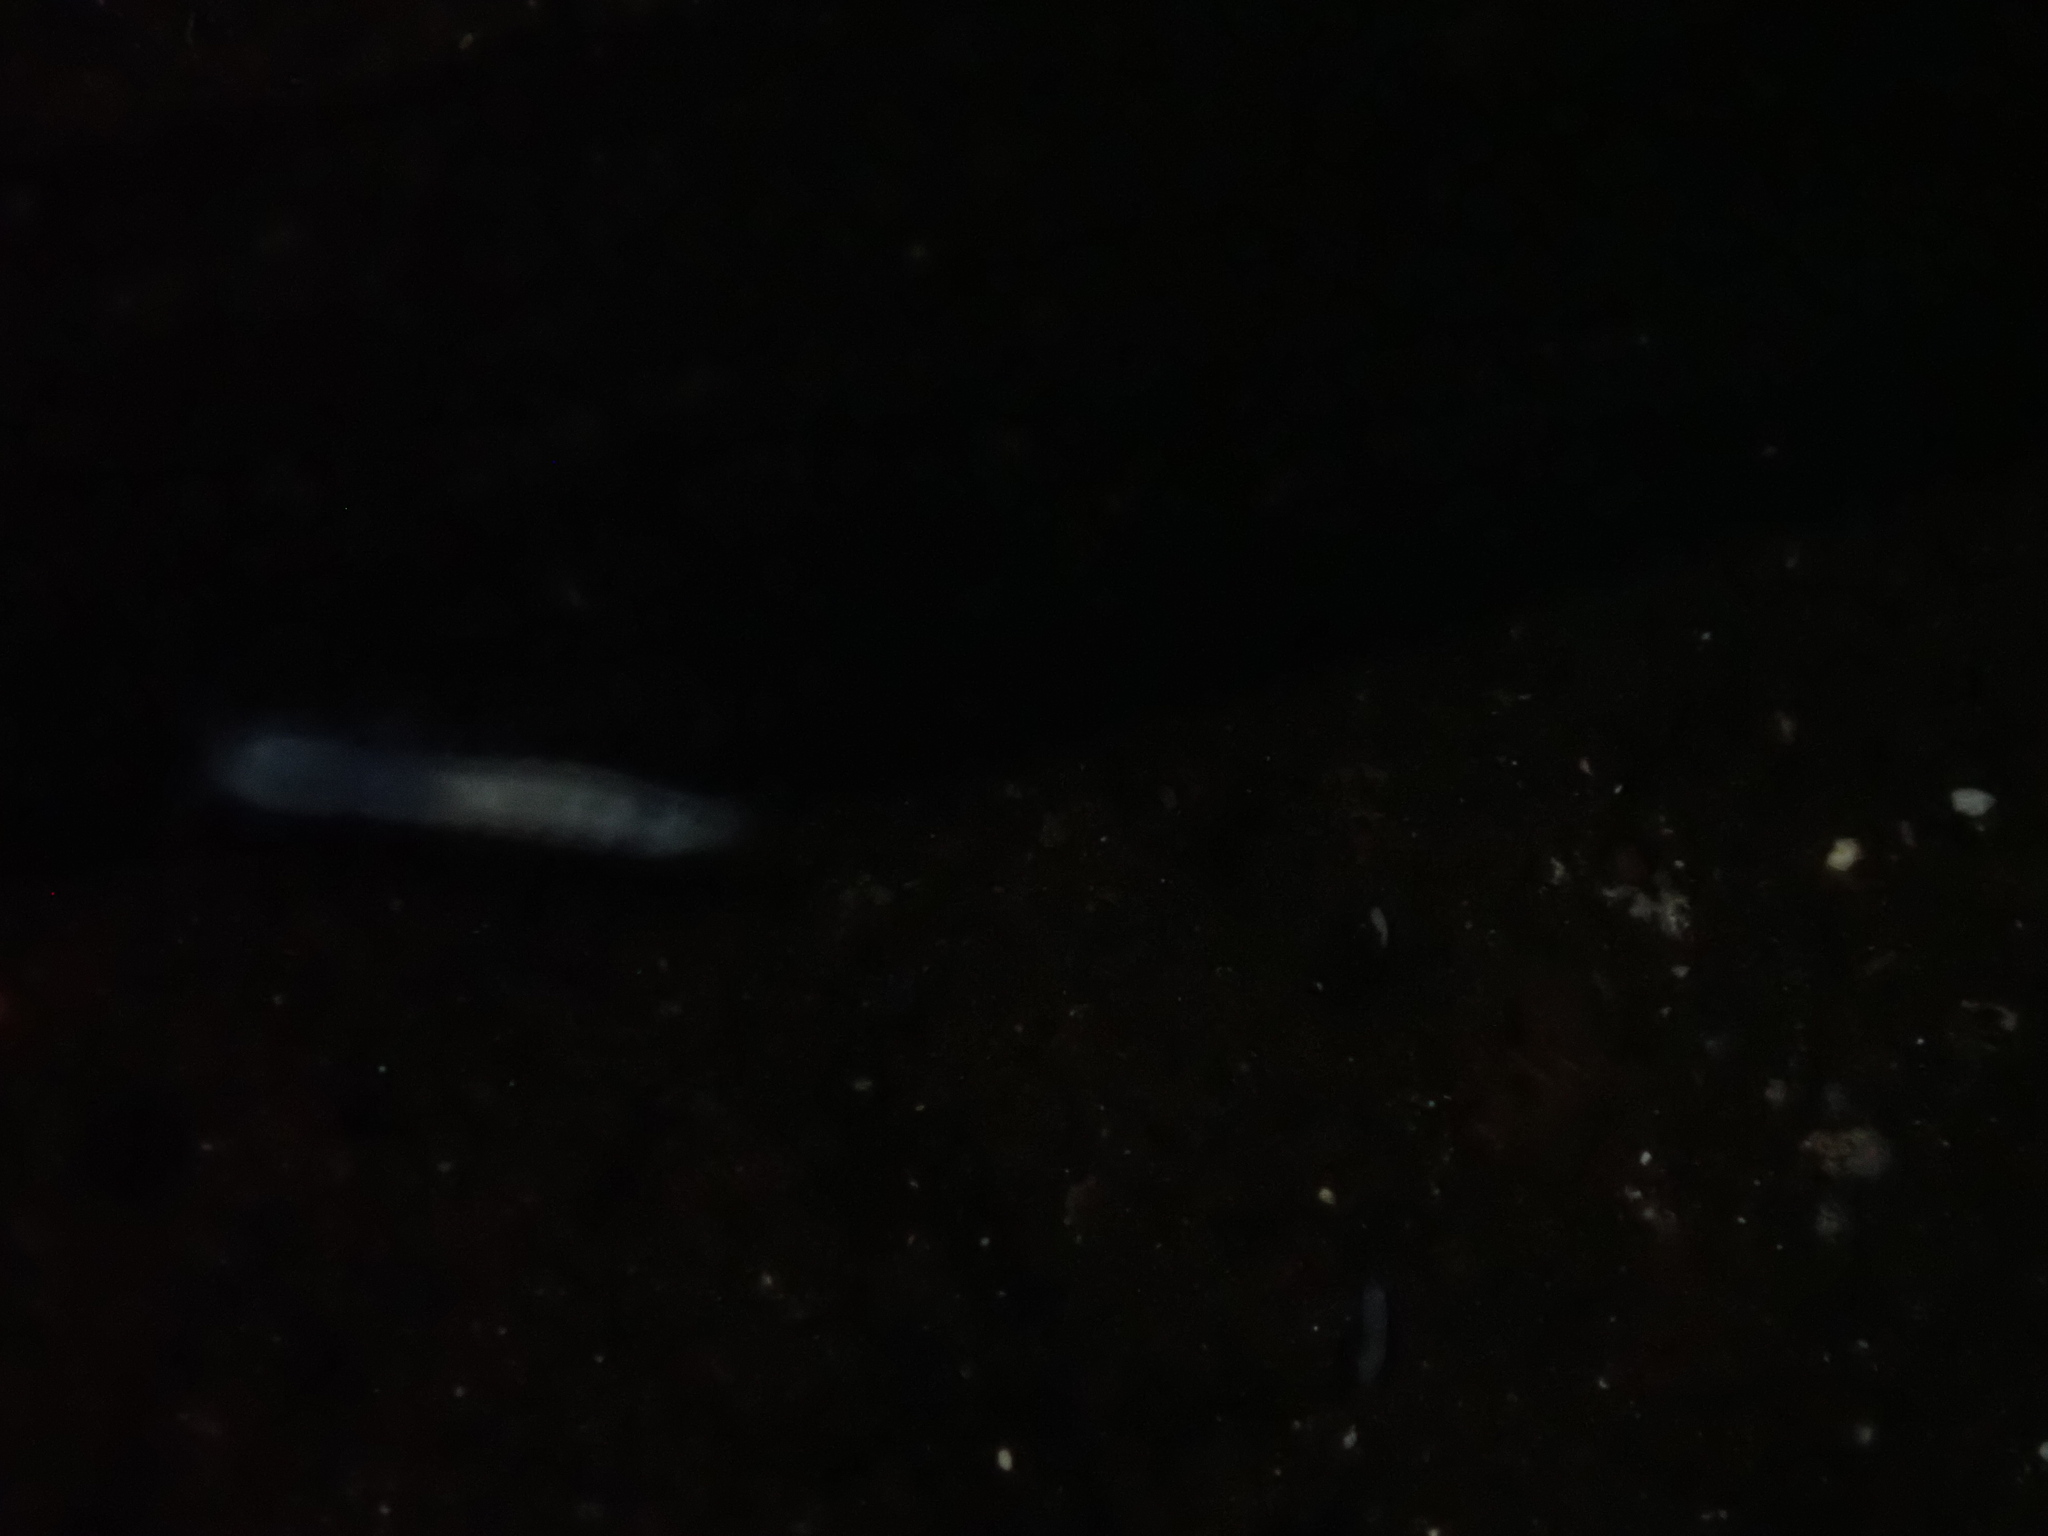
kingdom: Animalia
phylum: Arthropoda
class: Malacostraca
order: Mysida
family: Stygiomysidae
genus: Stygiomysis
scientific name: Stygiomysis holthuisi
